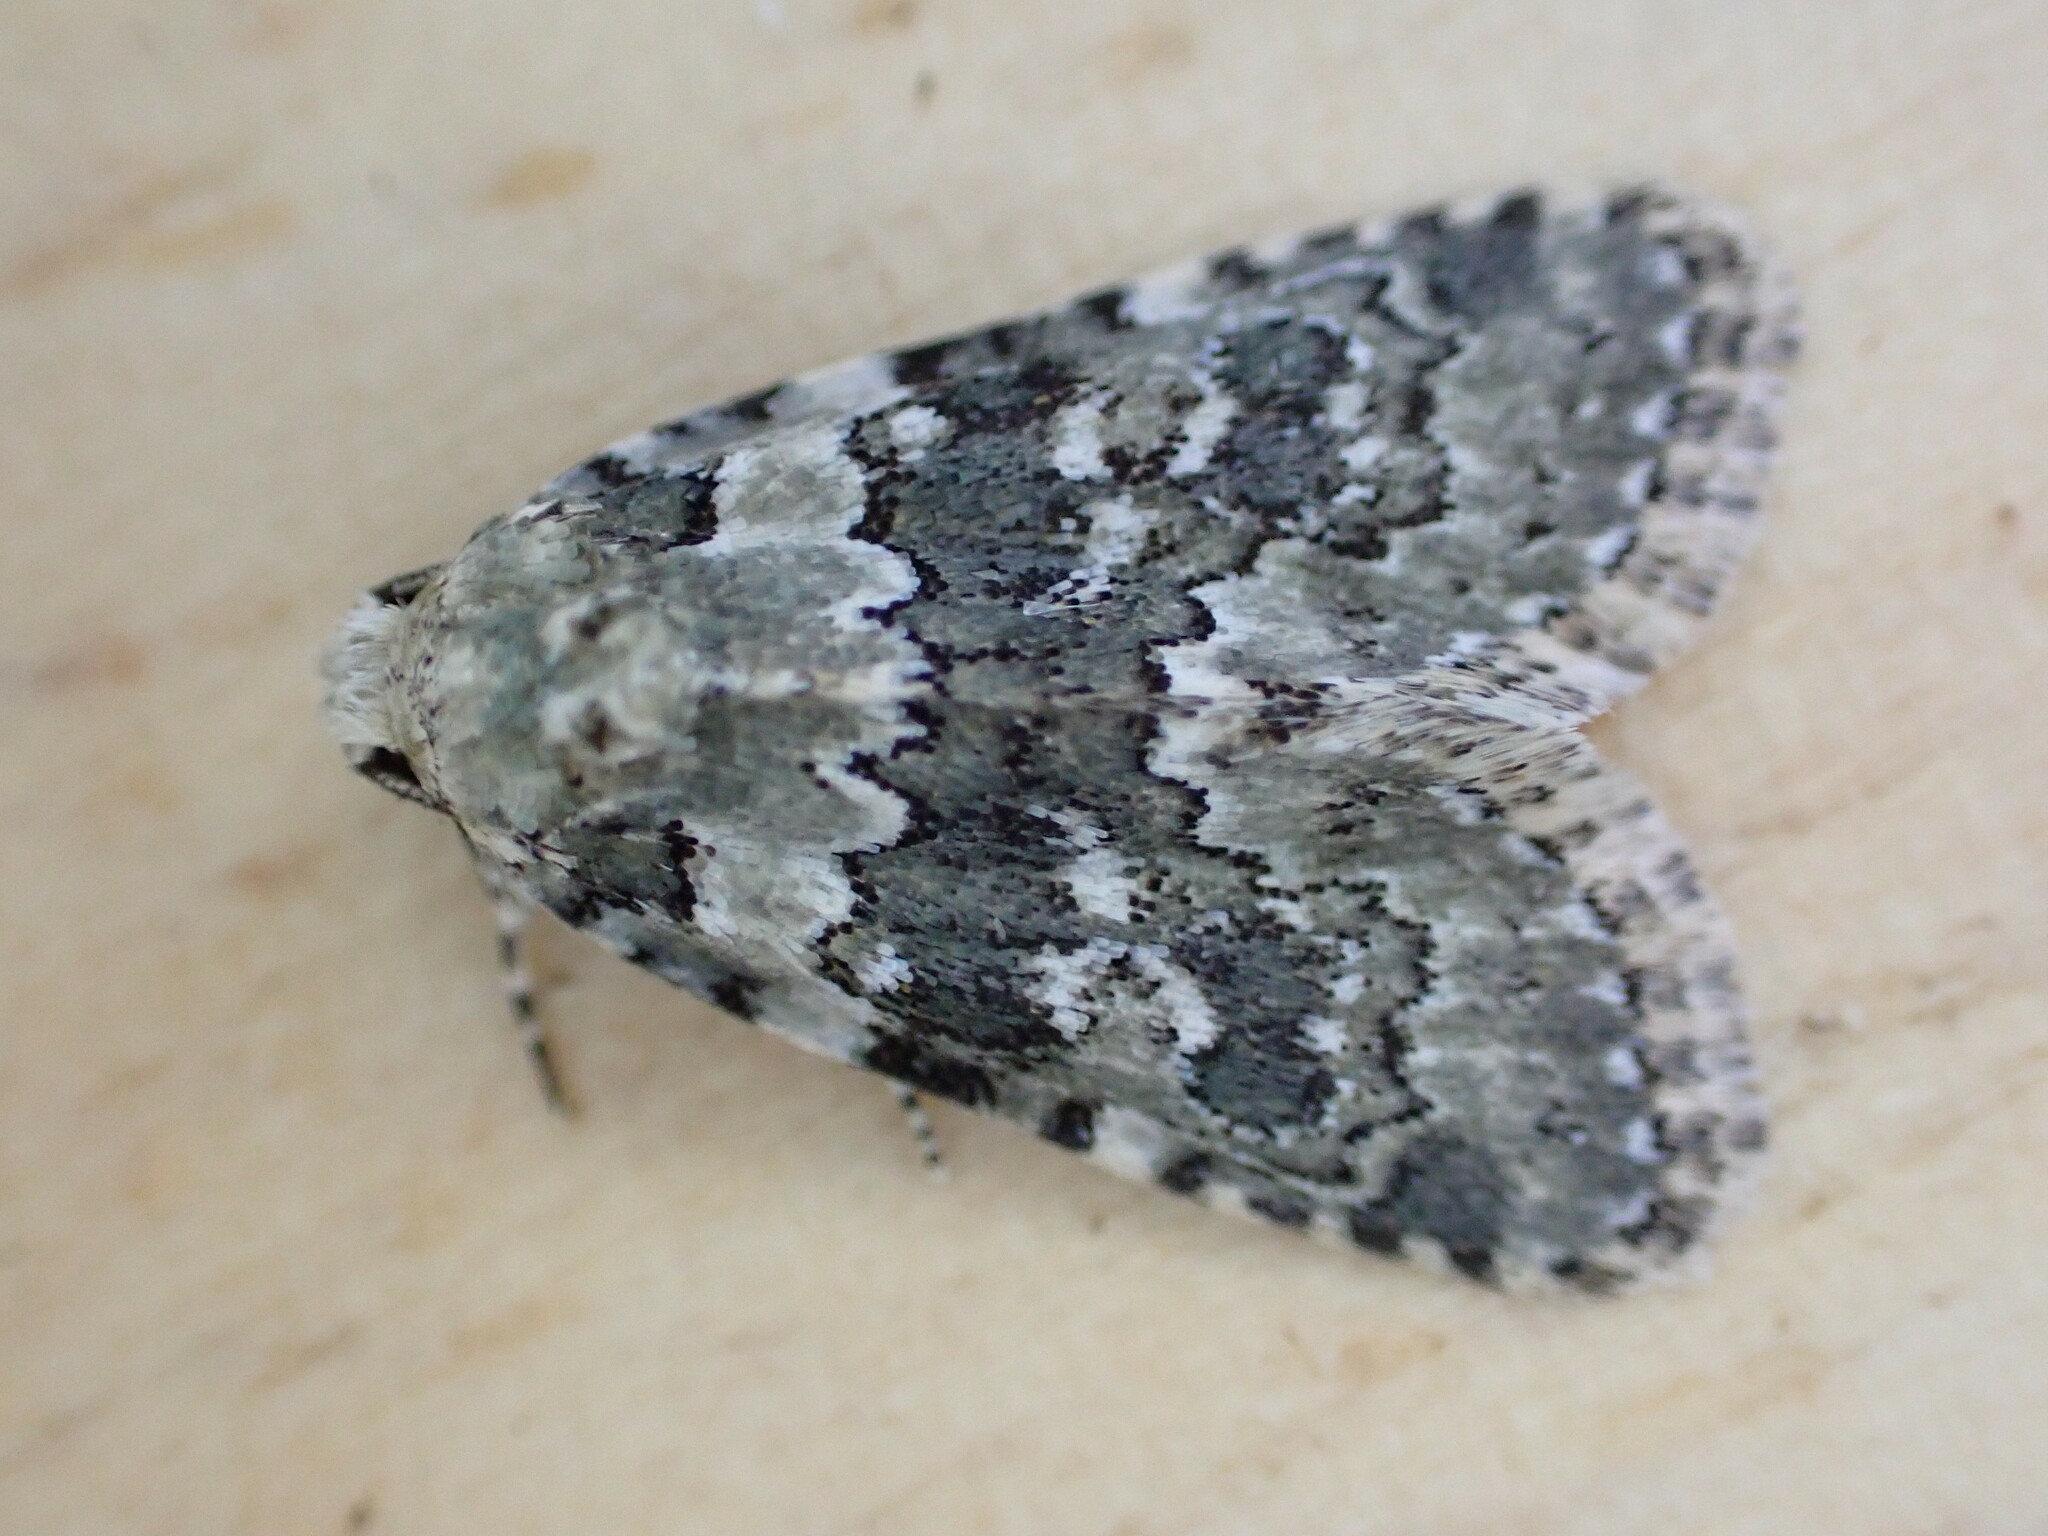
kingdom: Animalia
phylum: Arthropoda
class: Insecta
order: Lepidoptera
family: Noctuidae
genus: Bryophila
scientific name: Bryophila domestica
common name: Marbled beauty
